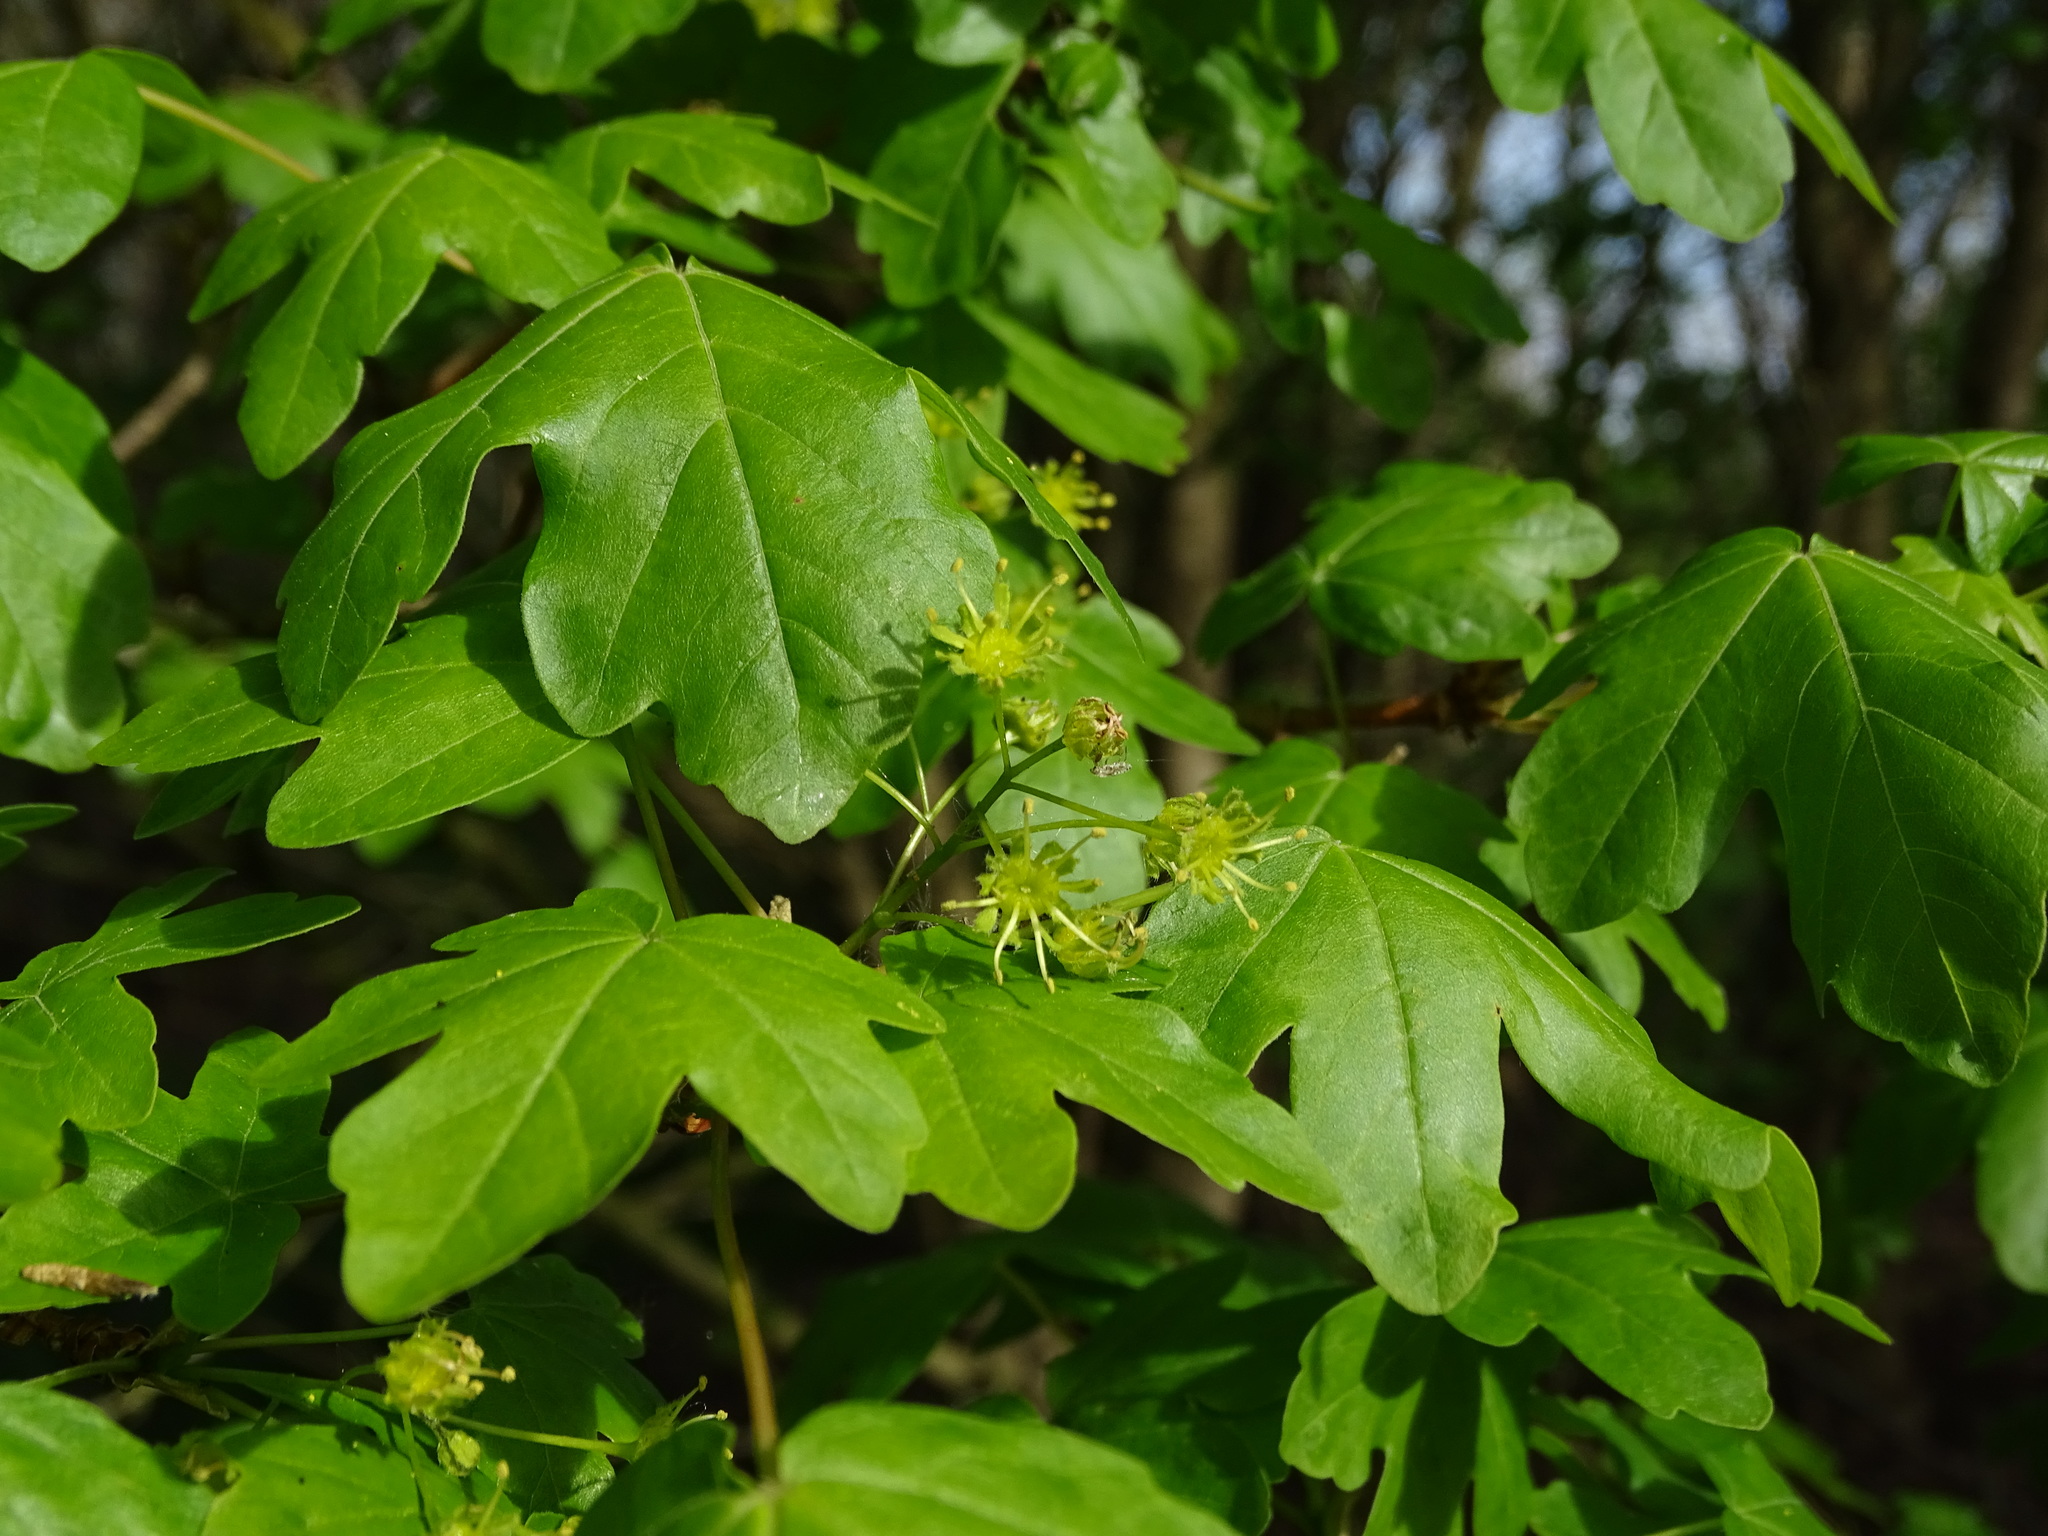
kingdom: Plantae
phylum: Tracheophyta
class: Magnoliopsida
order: Sapindales
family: Sapindaceae
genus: Acer
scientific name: Acer campestre
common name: Field maple
